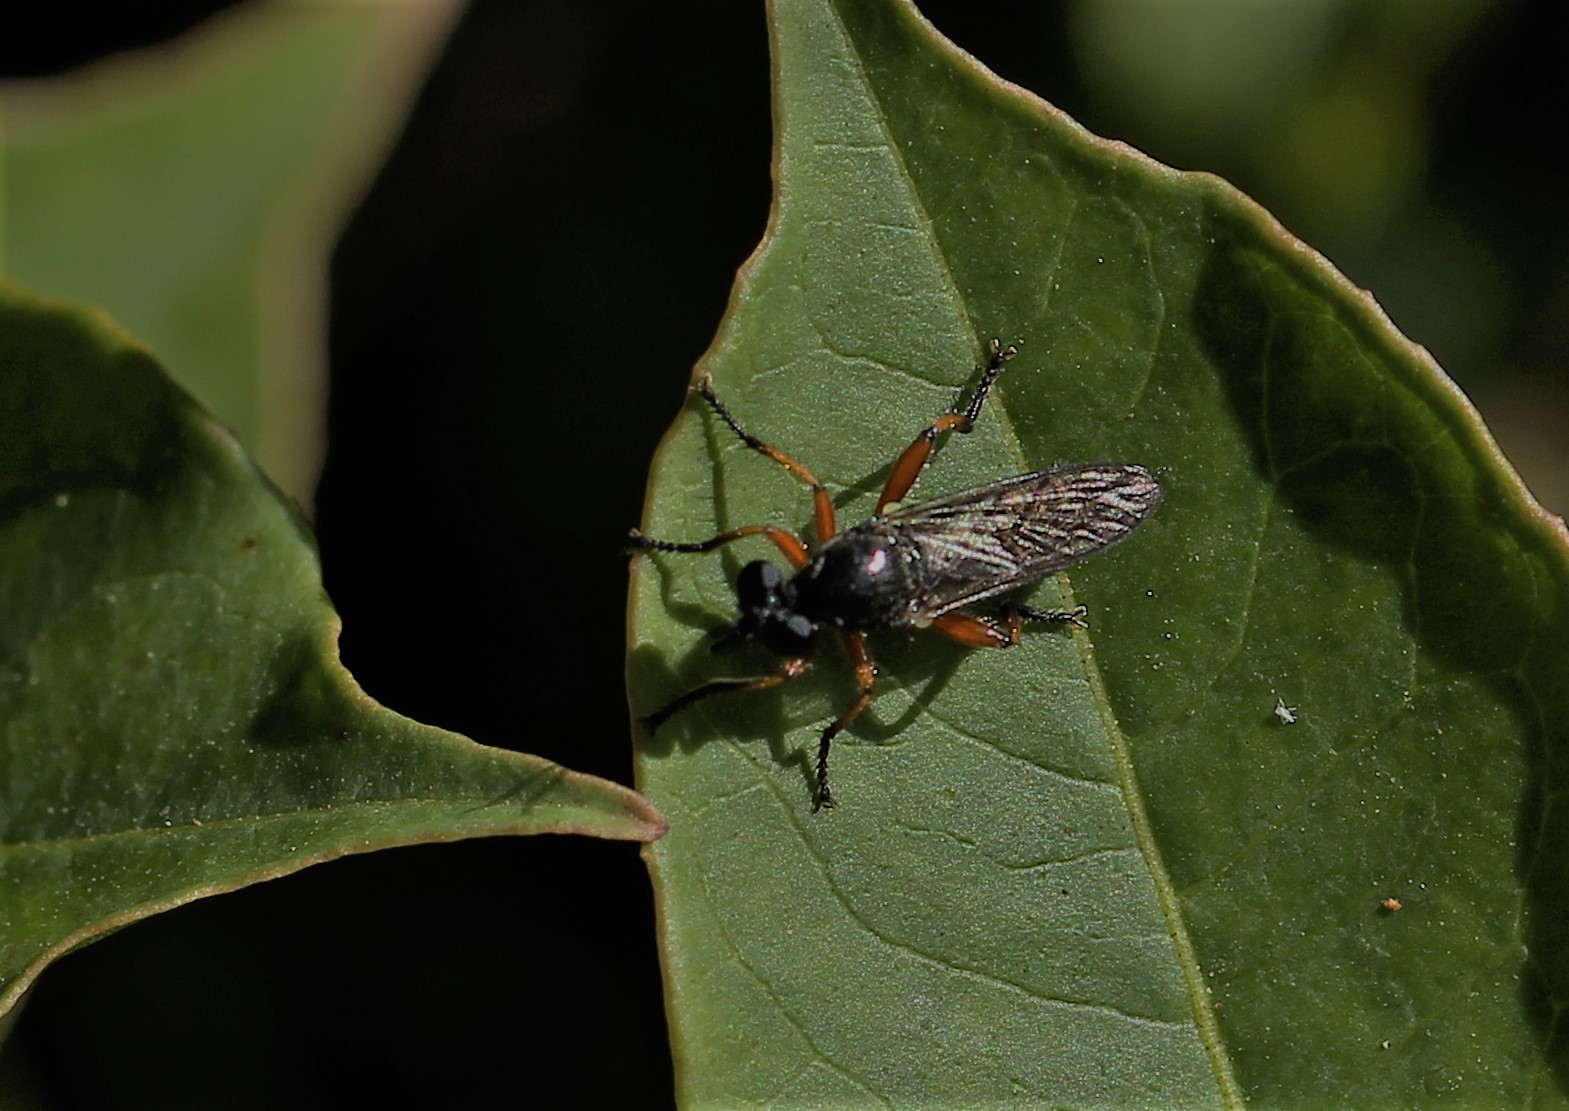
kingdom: Animalia
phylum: Arthropoda
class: Insecta
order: Diptera
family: Asilidae
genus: Laphria
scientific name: Laphria sadales
